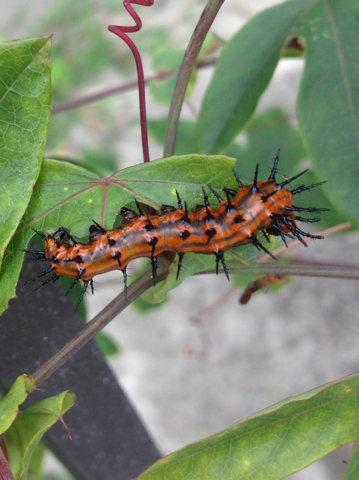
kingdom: Animalia
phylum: Arthropoda
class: Insecta
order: Lepidoptera
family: Nymphalidae
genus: Dione
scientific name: Dione vanillae
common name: Gulf fritillary
